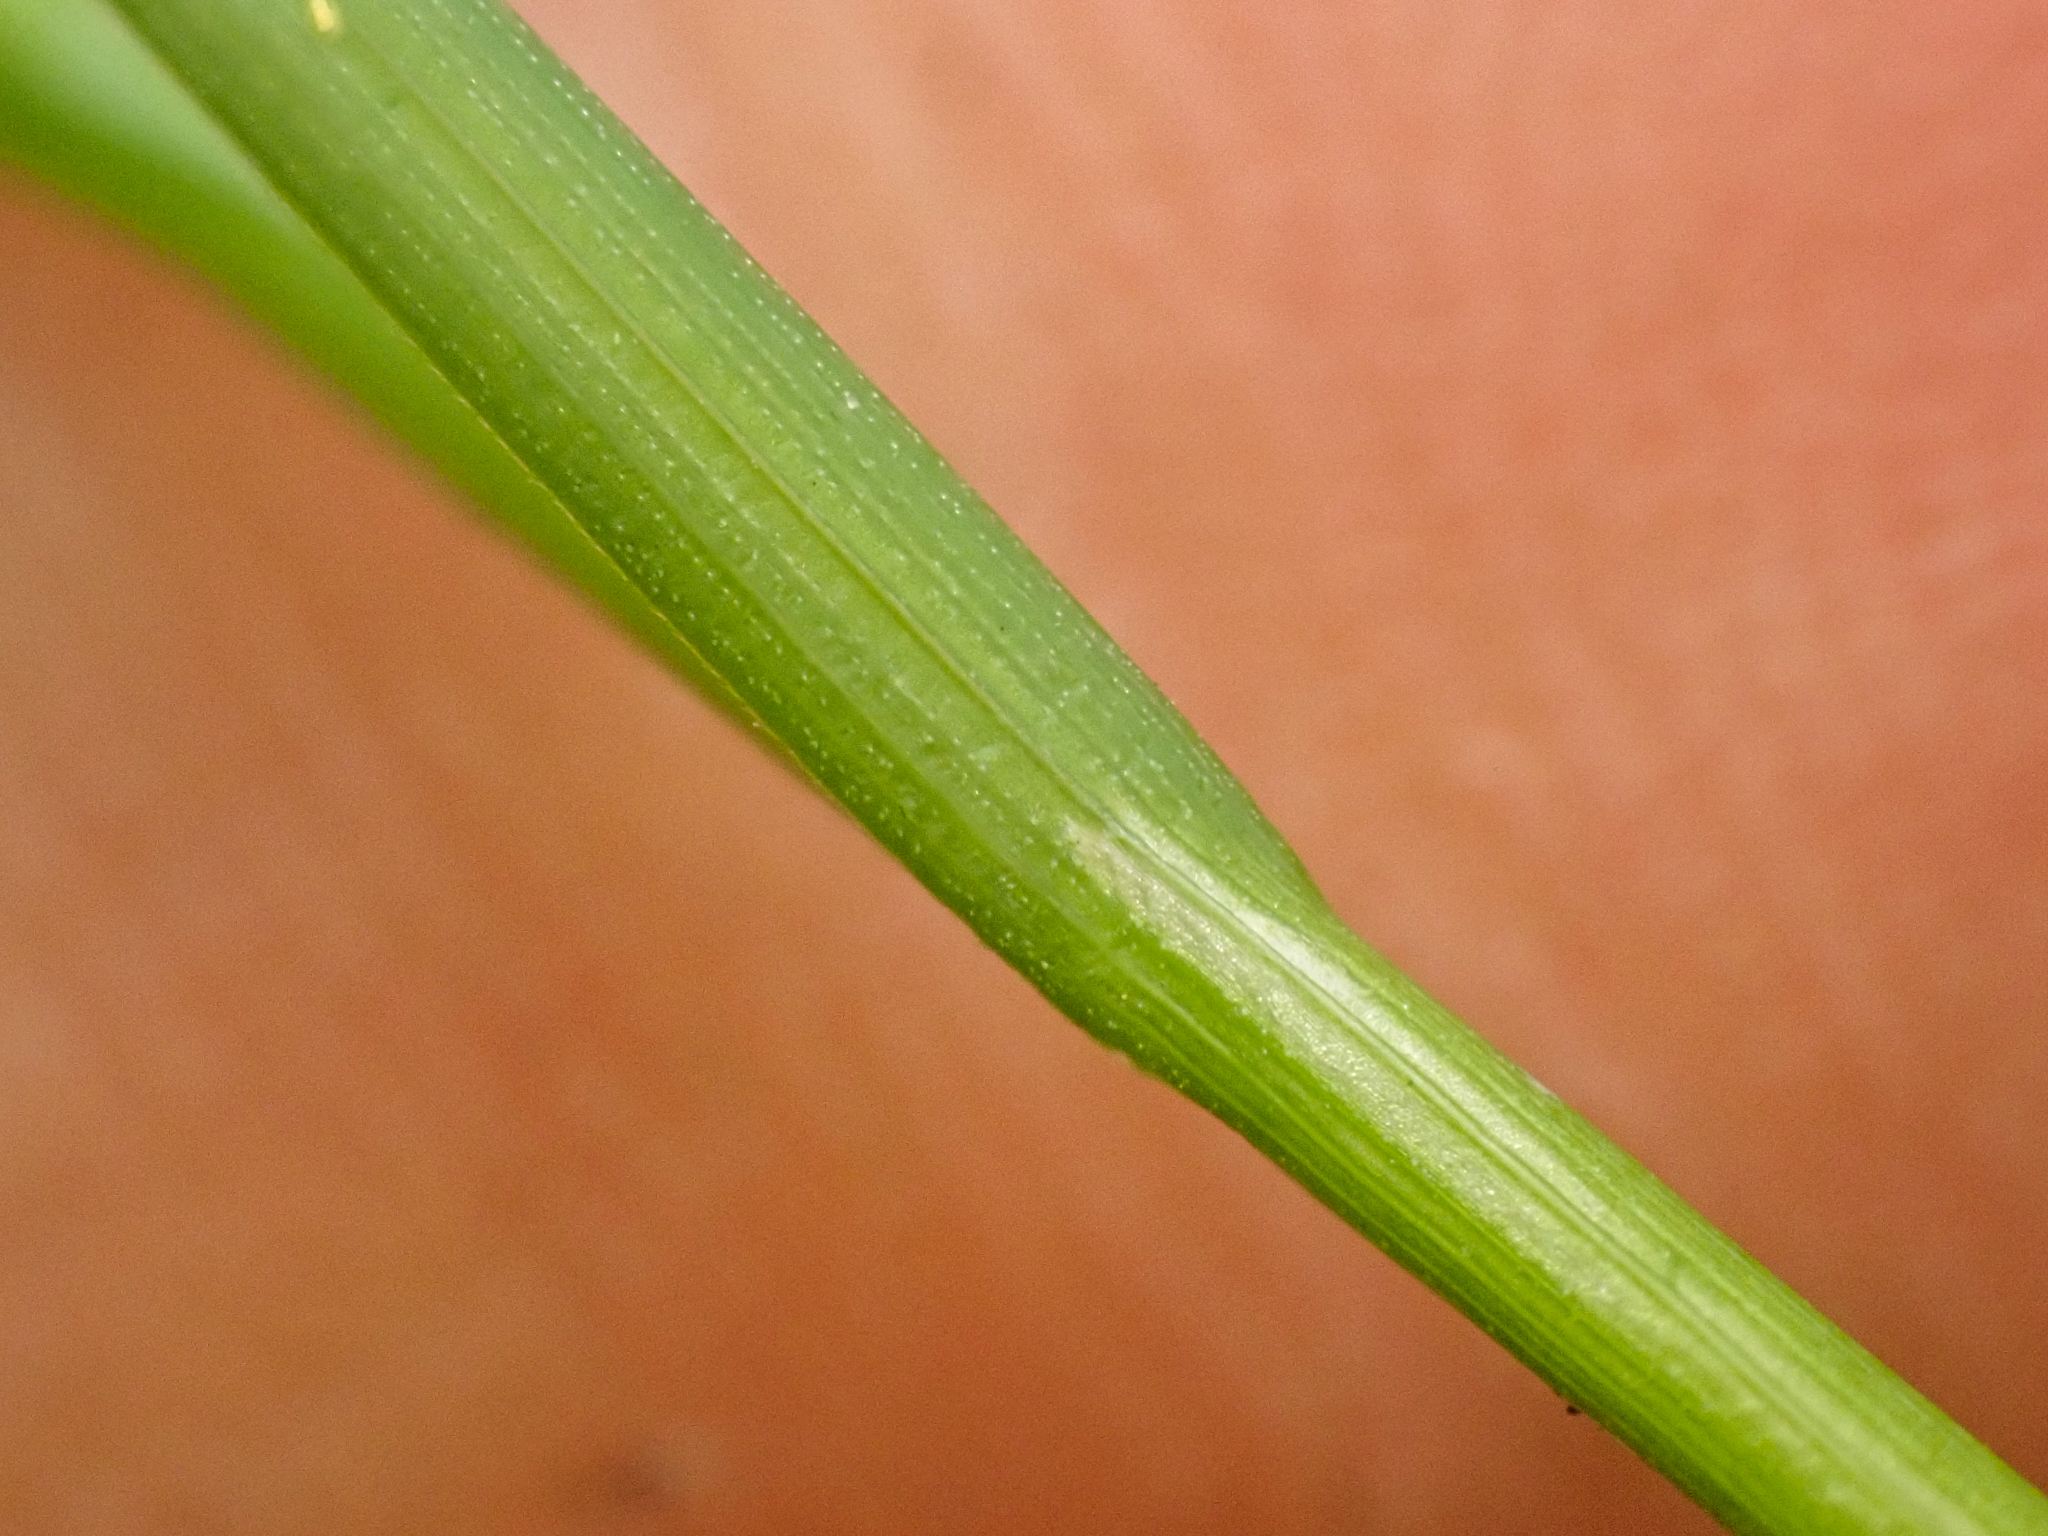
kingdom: Plantae
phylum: Tracheophyta
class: Liliopsida
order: Poales
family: Cyperaceae
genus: Carex
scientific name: Carex disperma
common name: Short-leaved sedge
